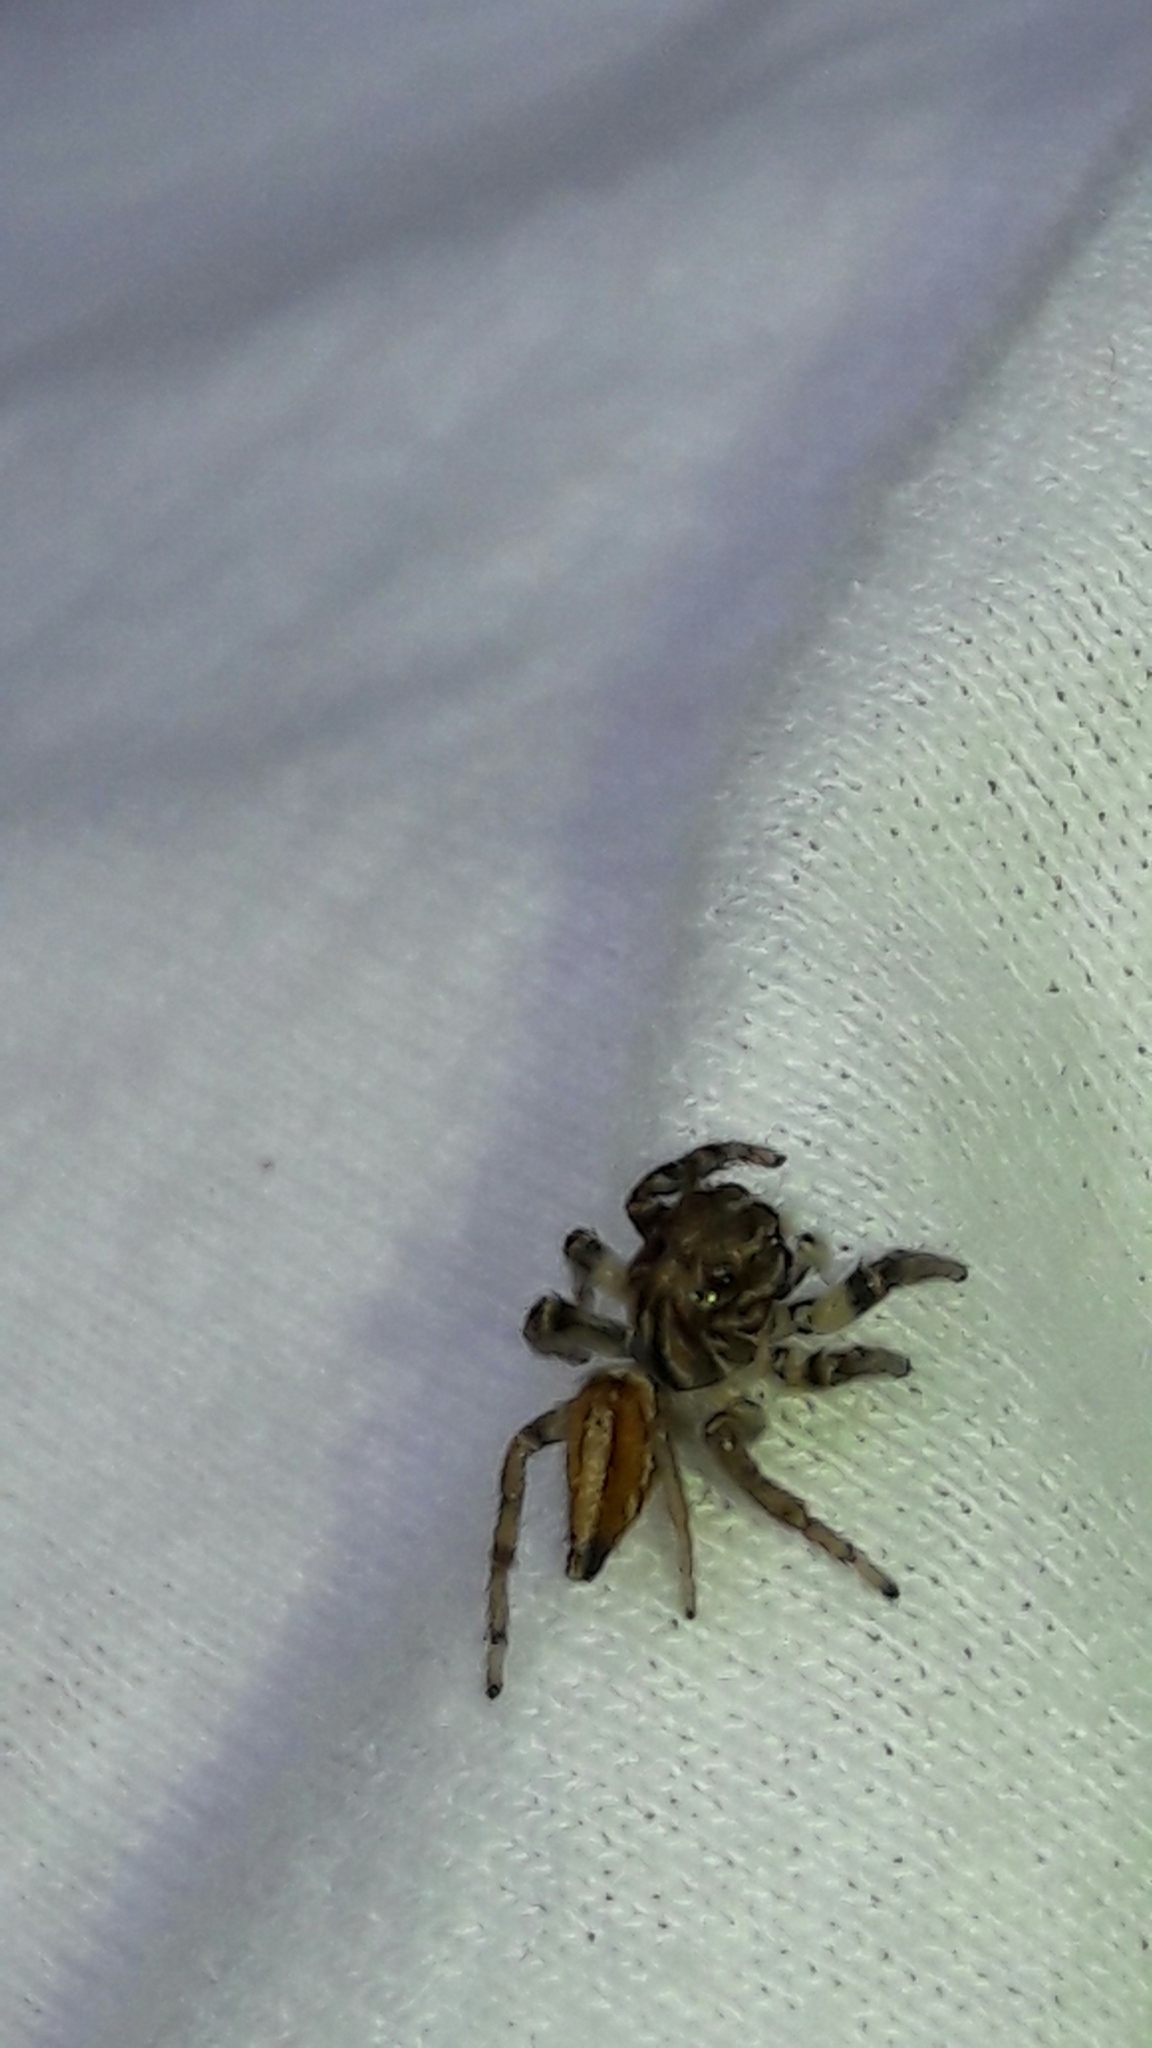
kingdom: Animalia
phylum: Arthropoda
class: Arachnida
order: Araneae
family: Salticidae
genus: Freya
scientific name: Freya nigrotaeniata
